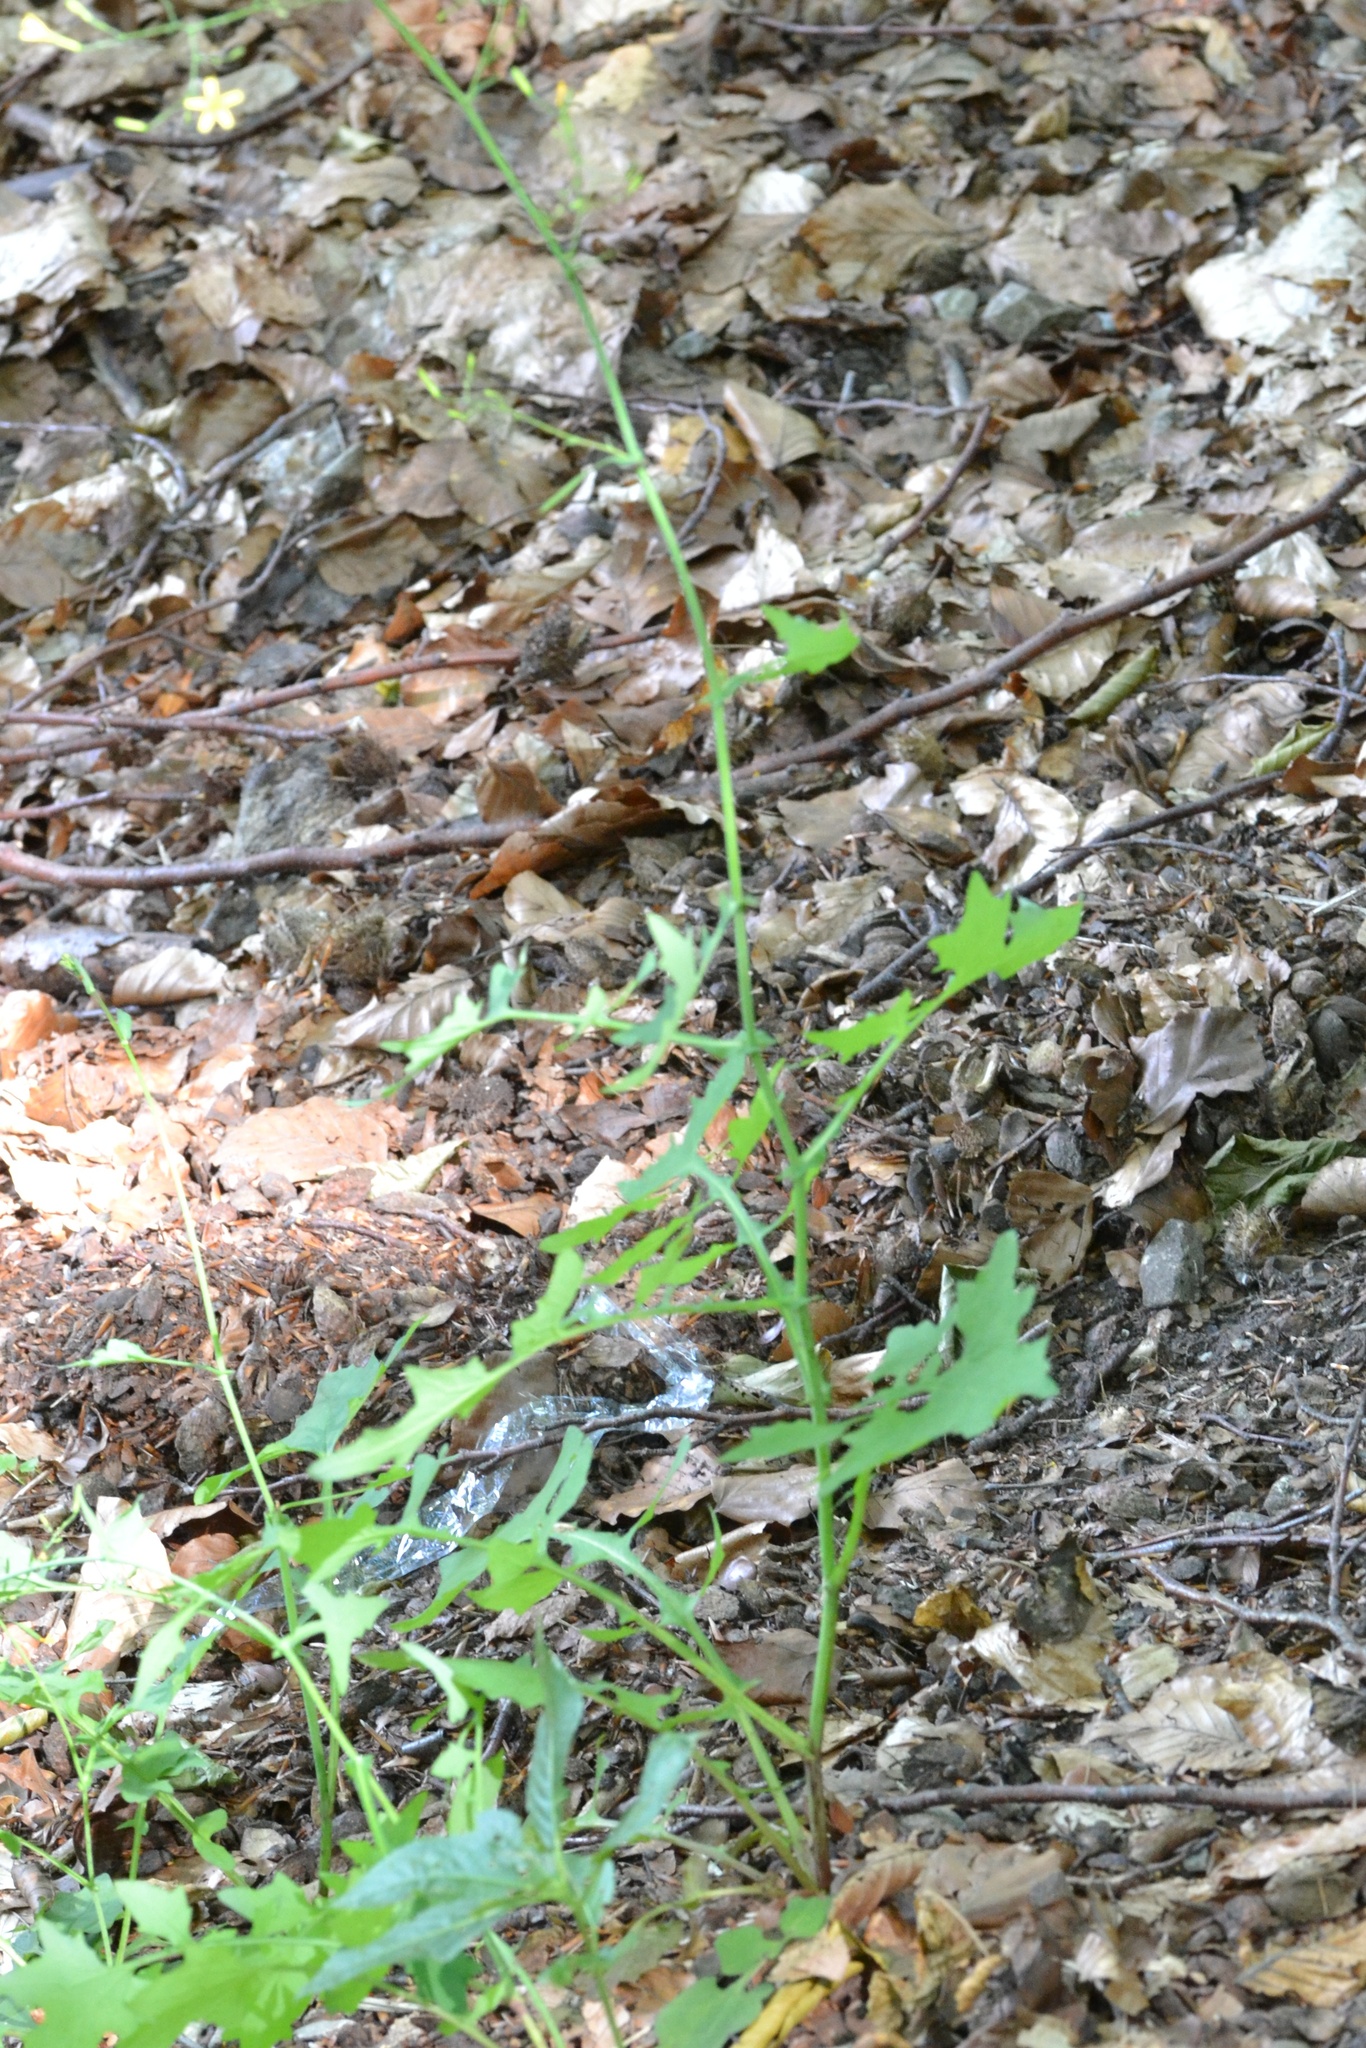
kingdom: Plantae
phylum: Tracheophyta
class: Magnoliopsida
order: Asterales
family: Asteraceae
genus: Mycelis
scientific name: Mycelis muralis
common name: Wall lettuce
